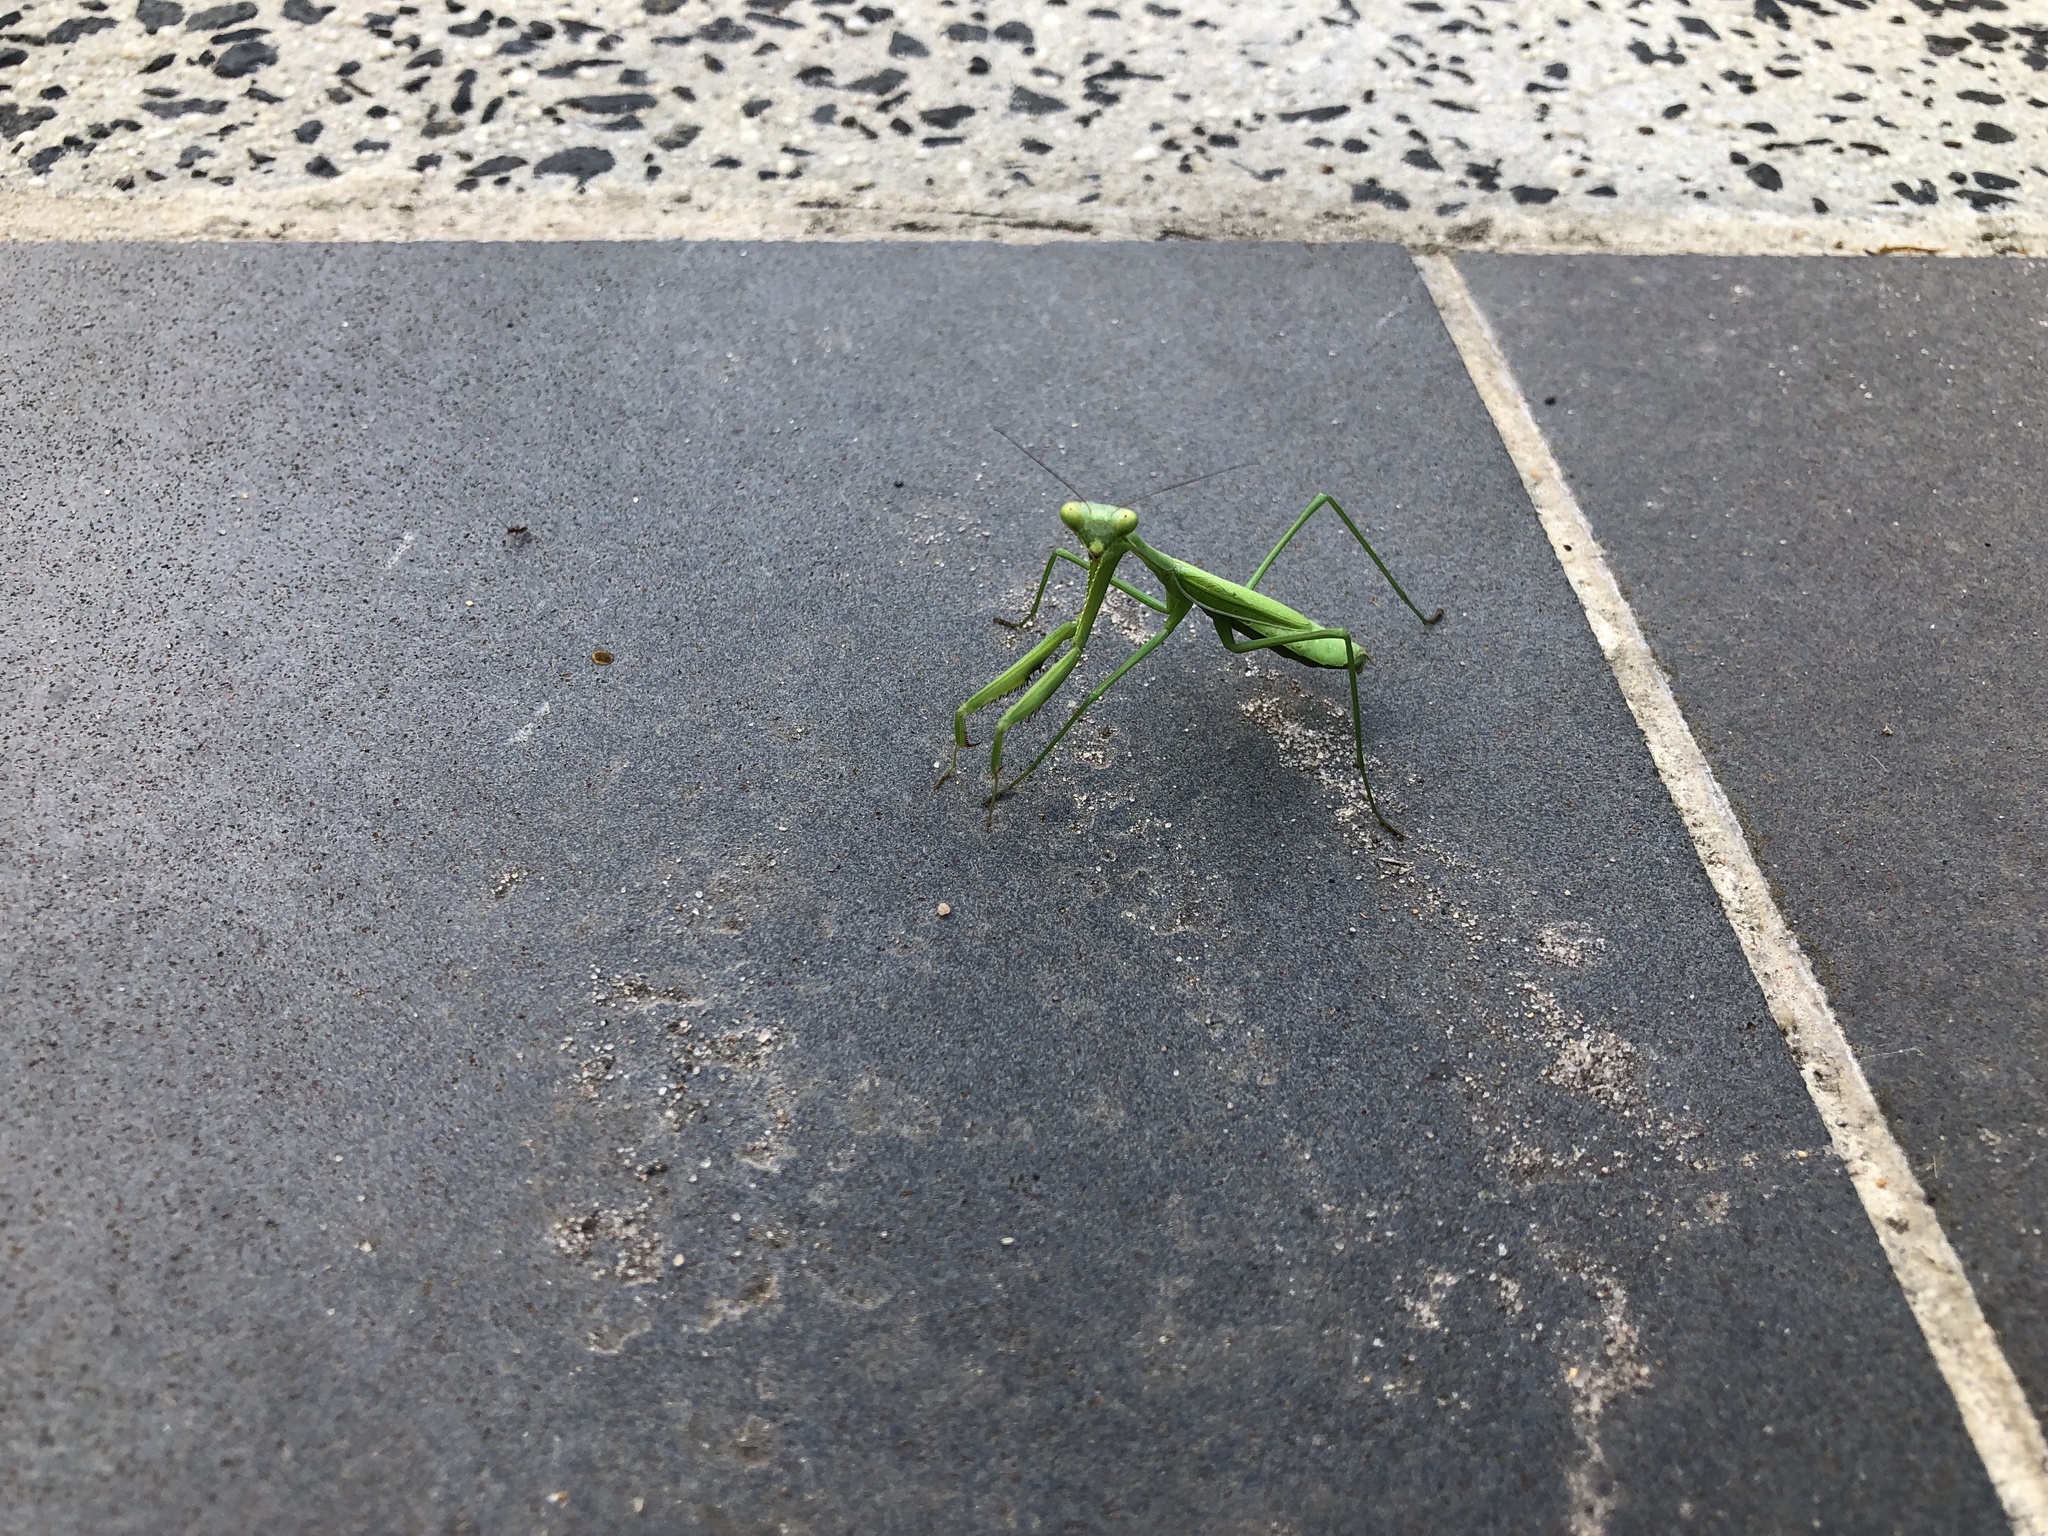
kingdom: Animalia
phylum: Arthropoda
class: Insecta
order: Mantodea
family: Mantidae
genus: Pseudomantis
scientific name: Pseudomantis albofimbriata
